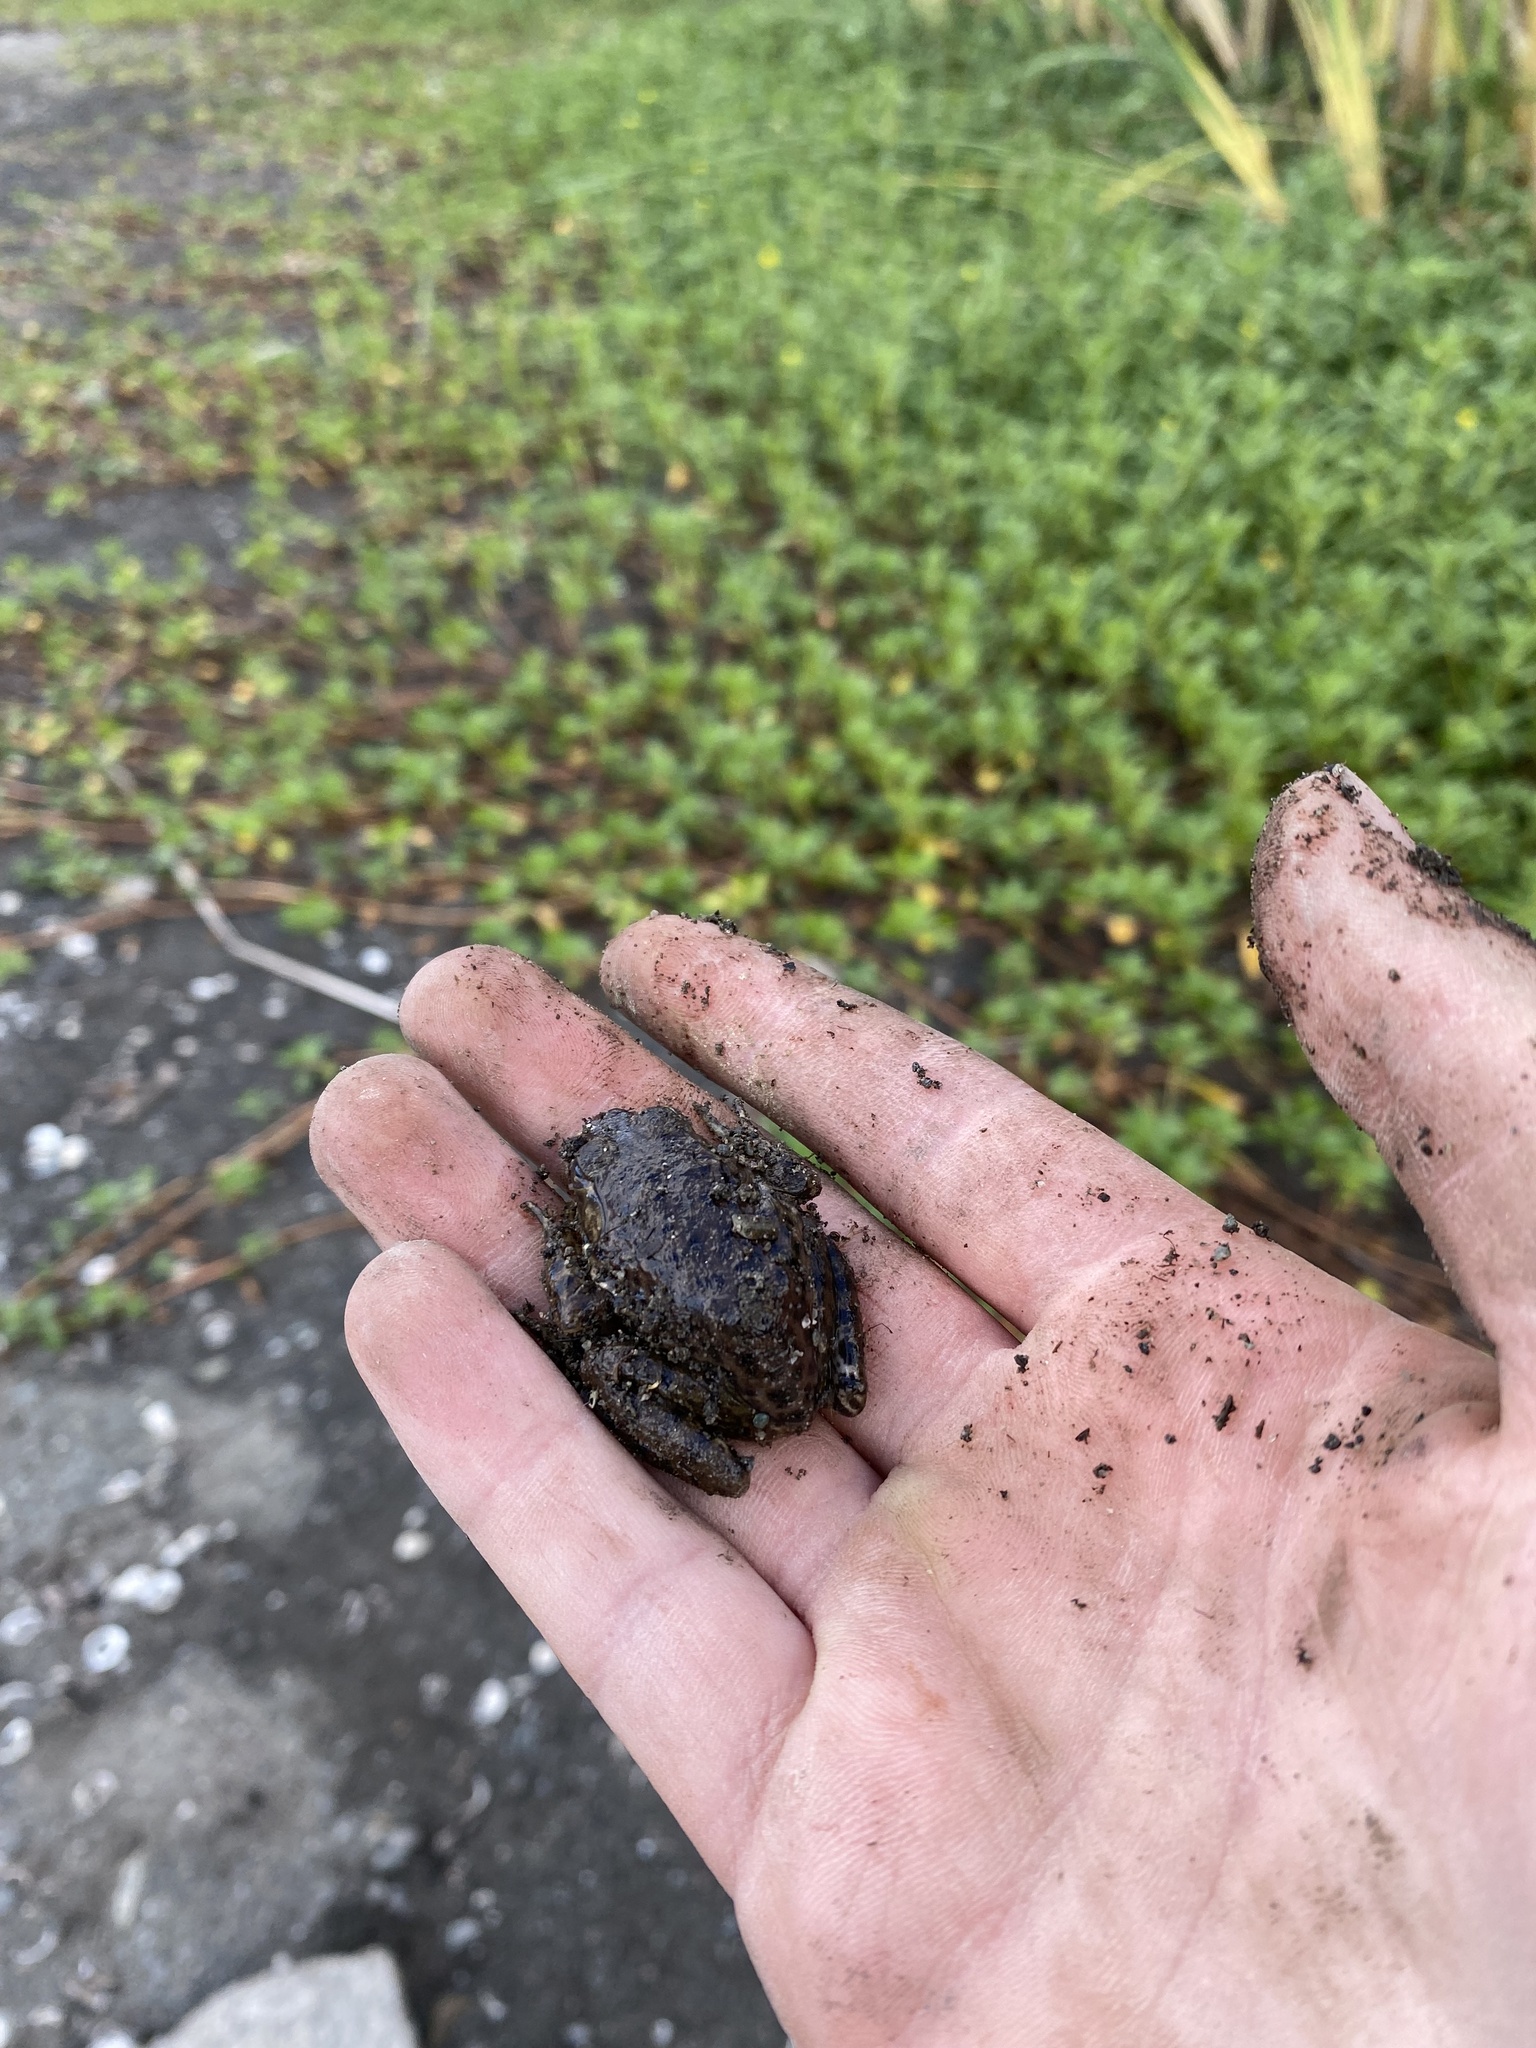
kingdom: Animalia
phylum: Chordata
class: Amphibia
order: Anura
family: Ranidae
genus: Lithobates
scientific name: Lithobates catesbeianus
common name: American bullfrog
